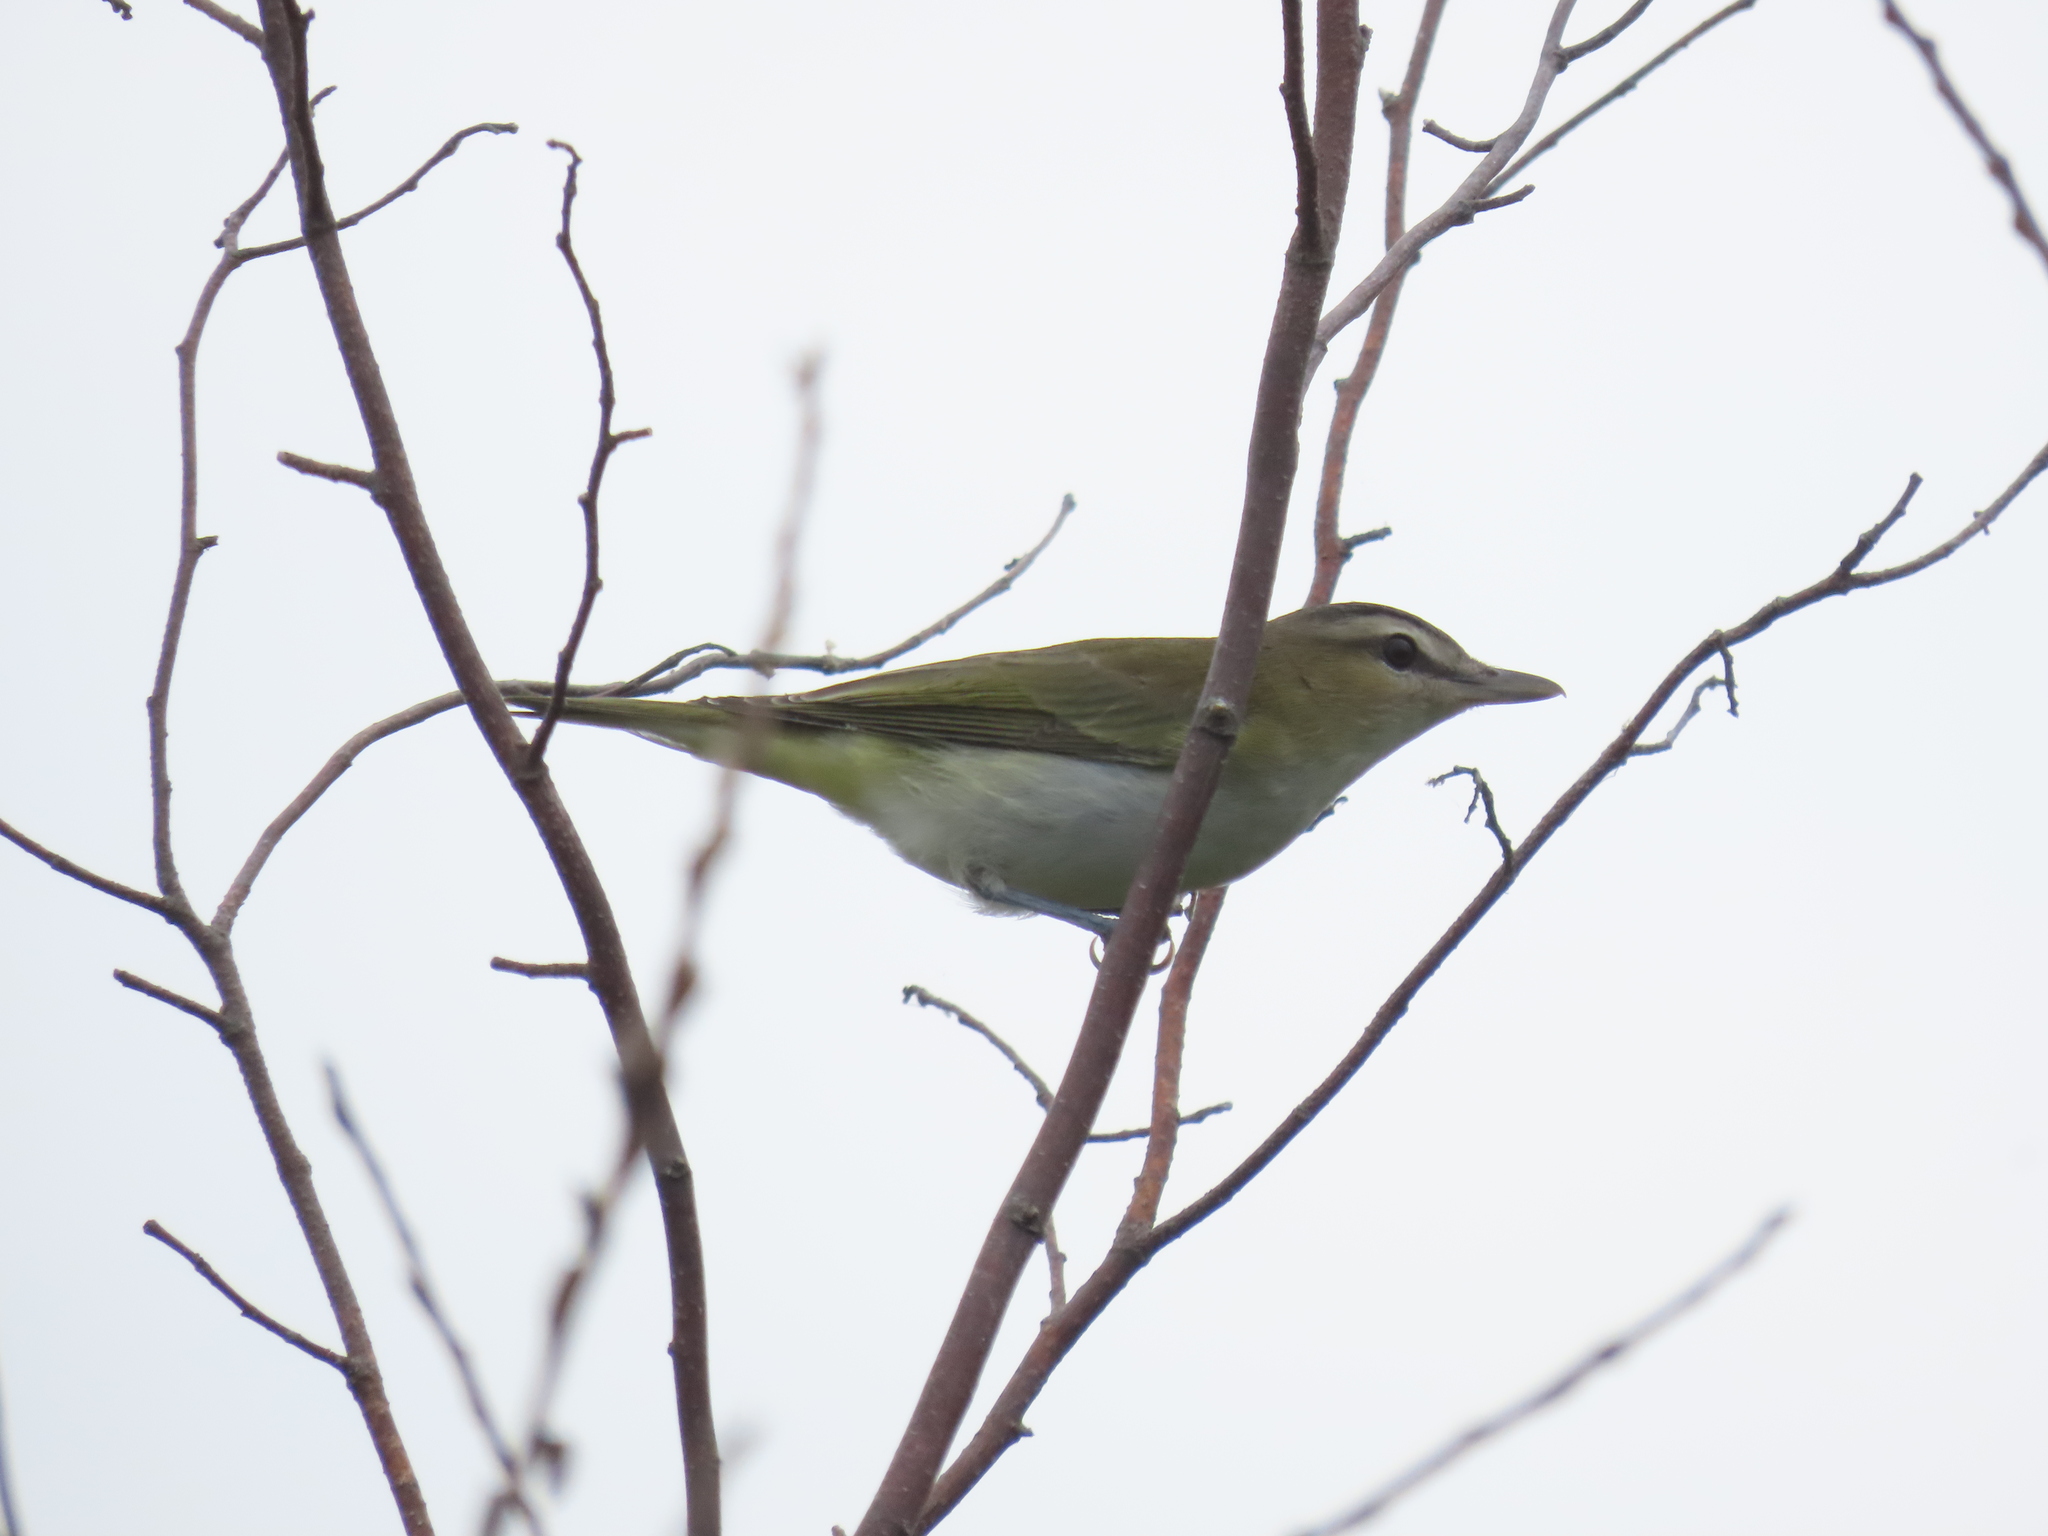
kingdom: Animalia
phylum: Chordata
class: Aves
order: Passeriformes
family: Vireonidae
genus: Vireo
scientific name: Vireo olivaceus
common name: Red-eyed vireo
